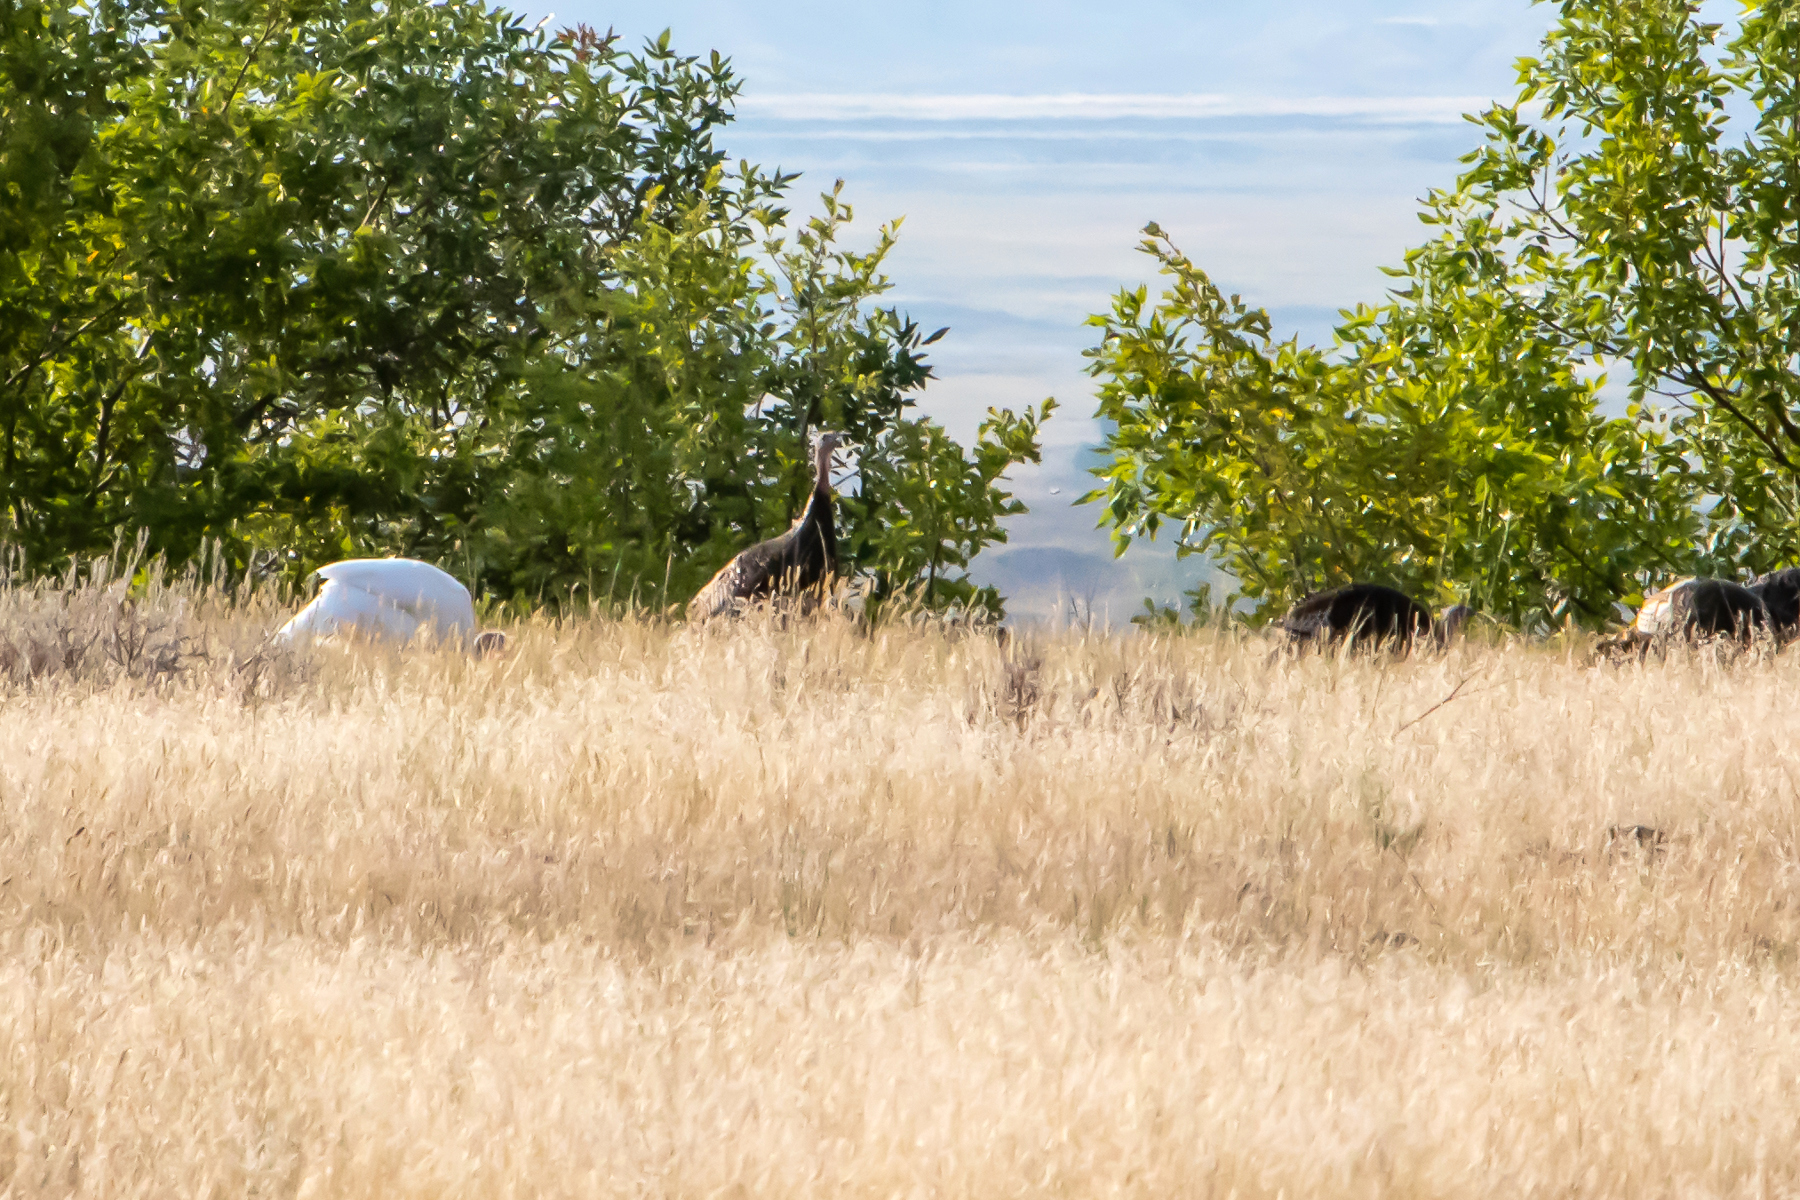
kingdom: Animalia
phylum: Chordata
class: Aves
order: Galliformes
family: Phasianidae
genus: Meleagris
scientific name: Meleagris gallopavo
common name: Wild turkey
